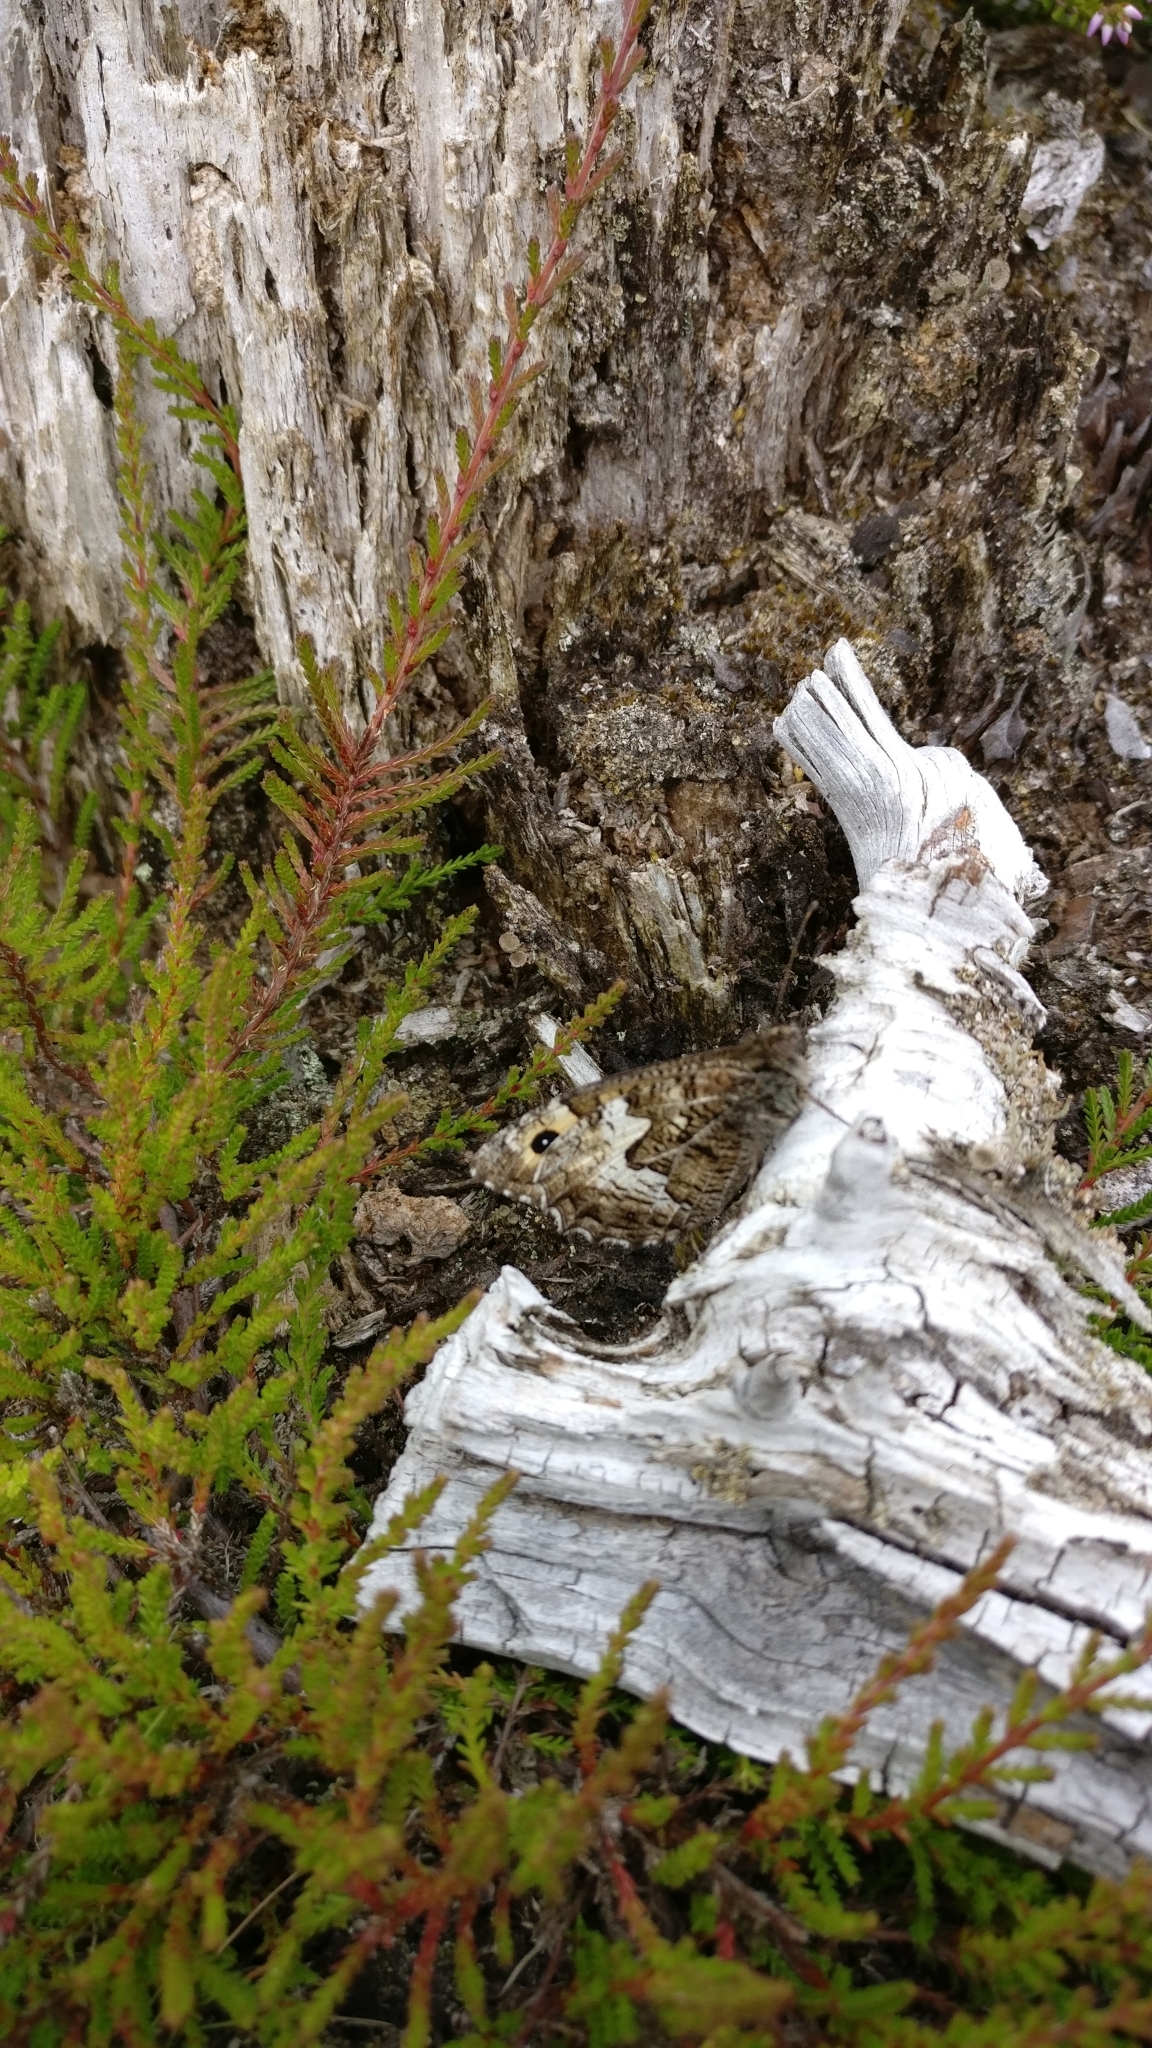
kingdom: Animalia
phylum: Arthropoda
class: Insecta
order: Lepidoptera
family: Nymphalidae
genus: Hipparchia
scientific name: Hipparchia semele
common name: Grayling
